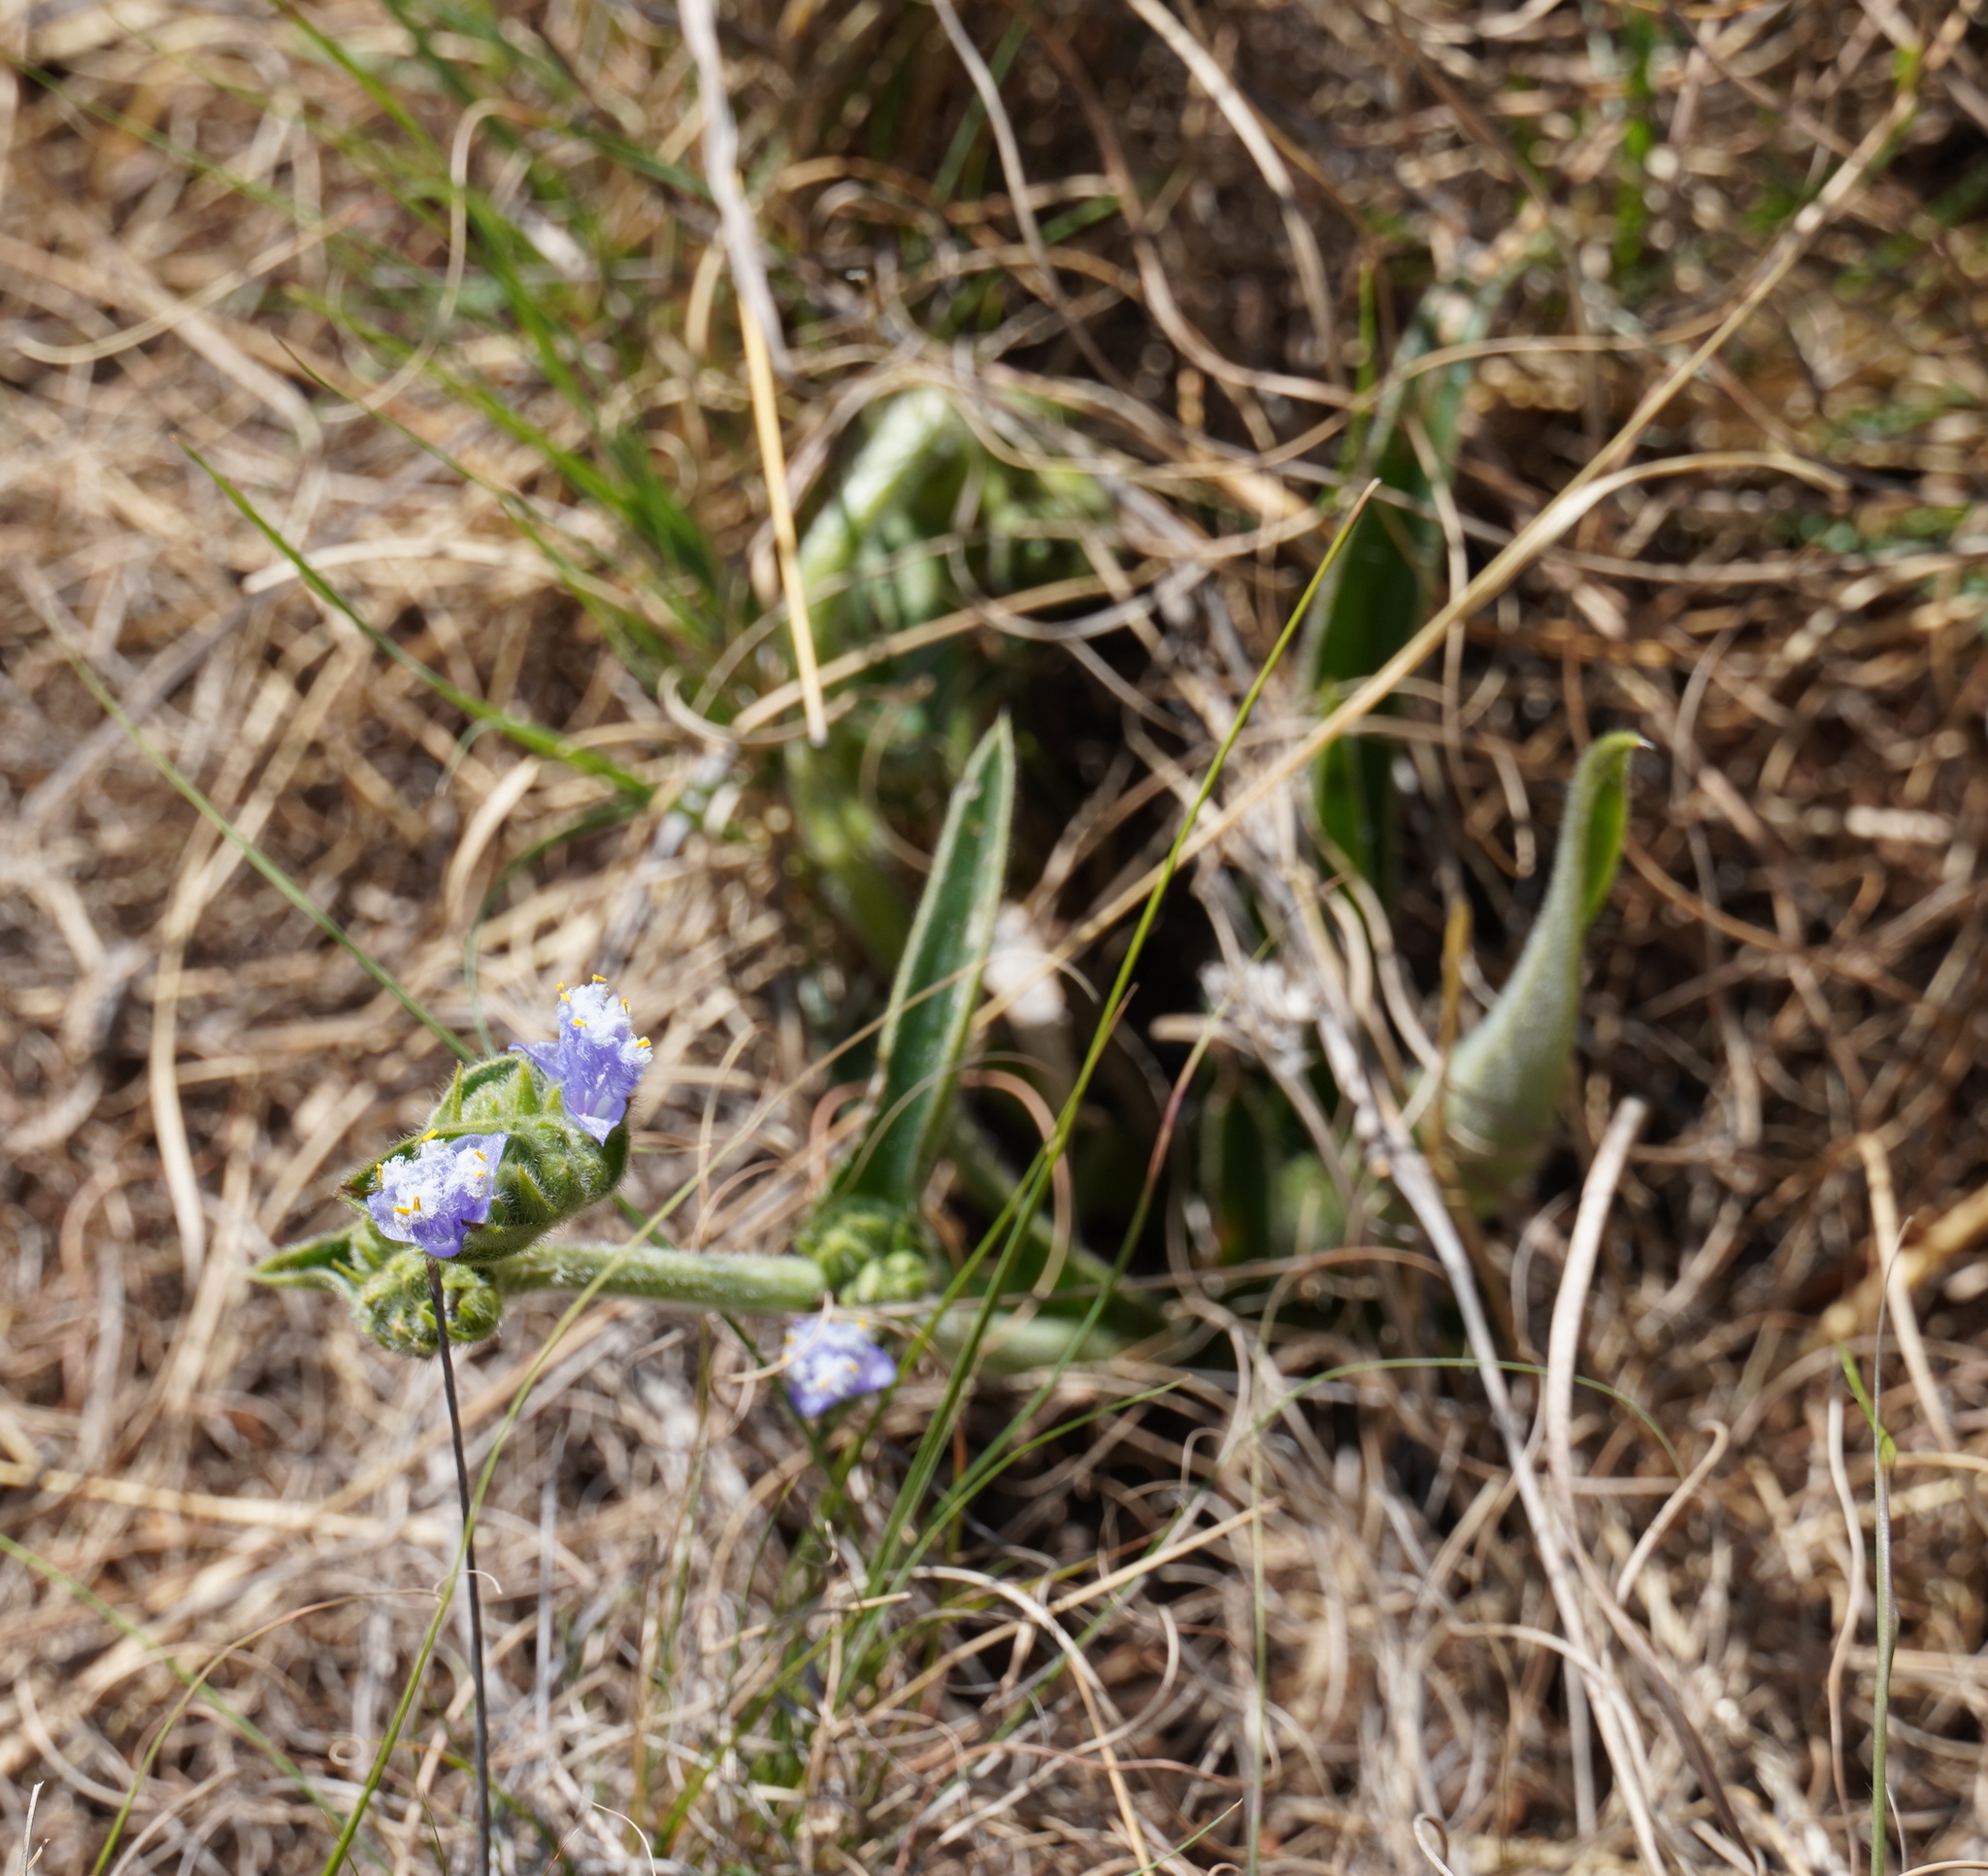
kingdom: Plantae
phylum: Tracheophyta
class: Liliopsida
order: Commelinales
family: Commelinaceae
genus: Cyanotis
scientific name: Cyanotis speciosa
